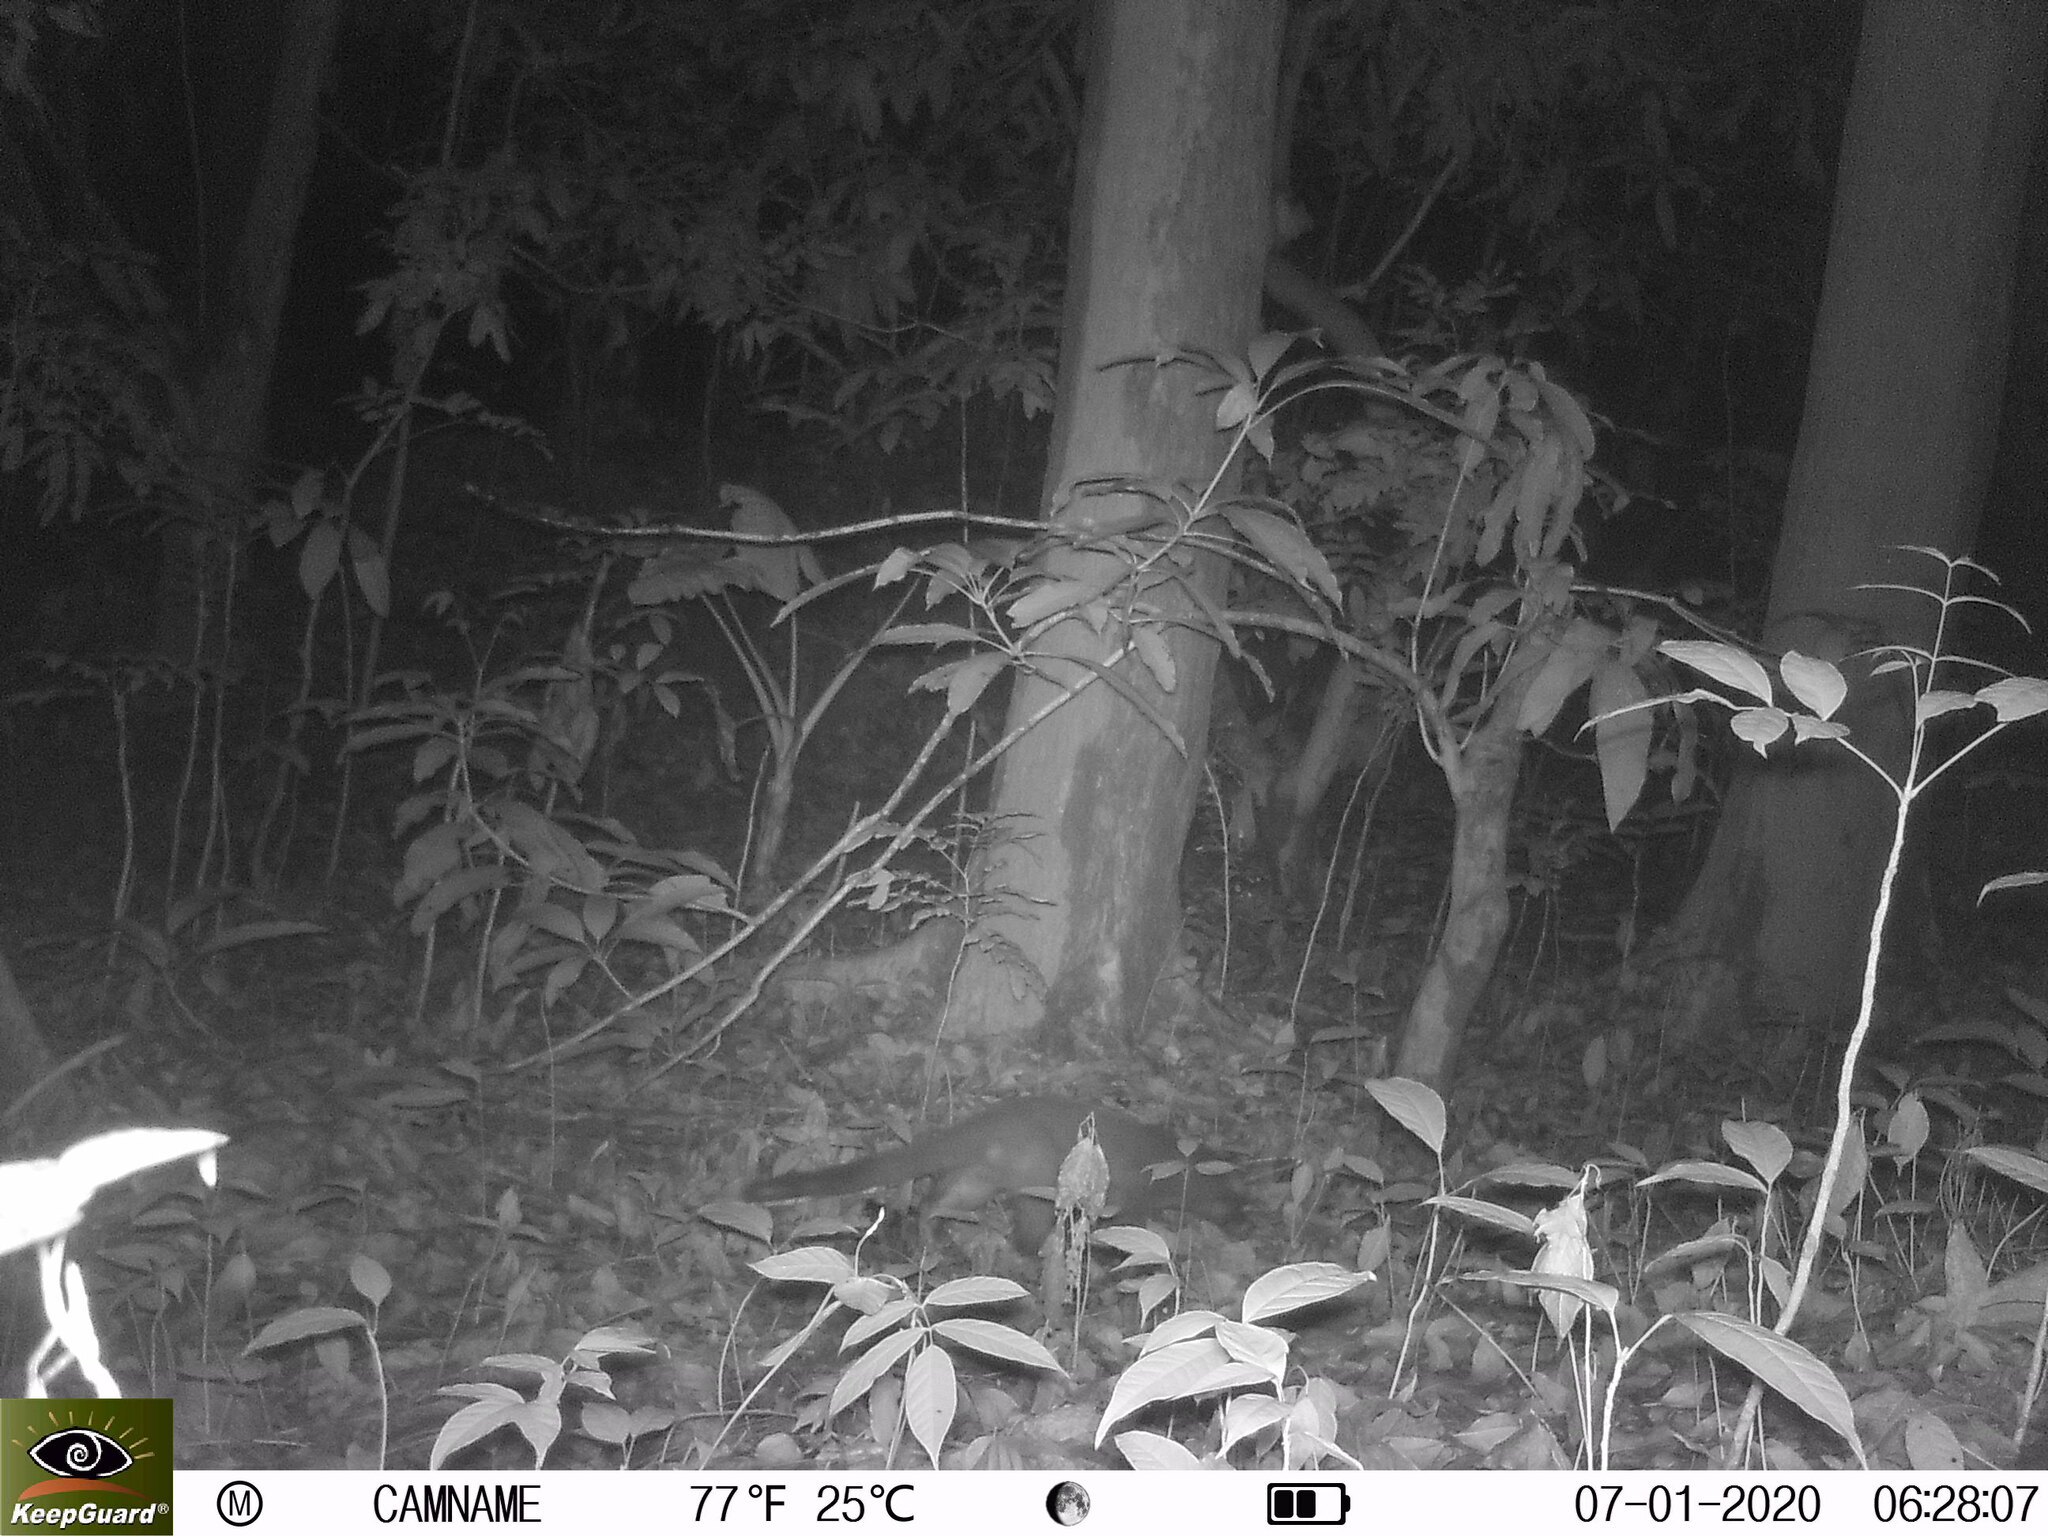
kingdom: Animalia
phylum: Chordata
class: Mammalia
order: Carnivora
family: Viverridae
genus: Paguma
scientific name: Paguma larvata
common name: Masked palm civet
